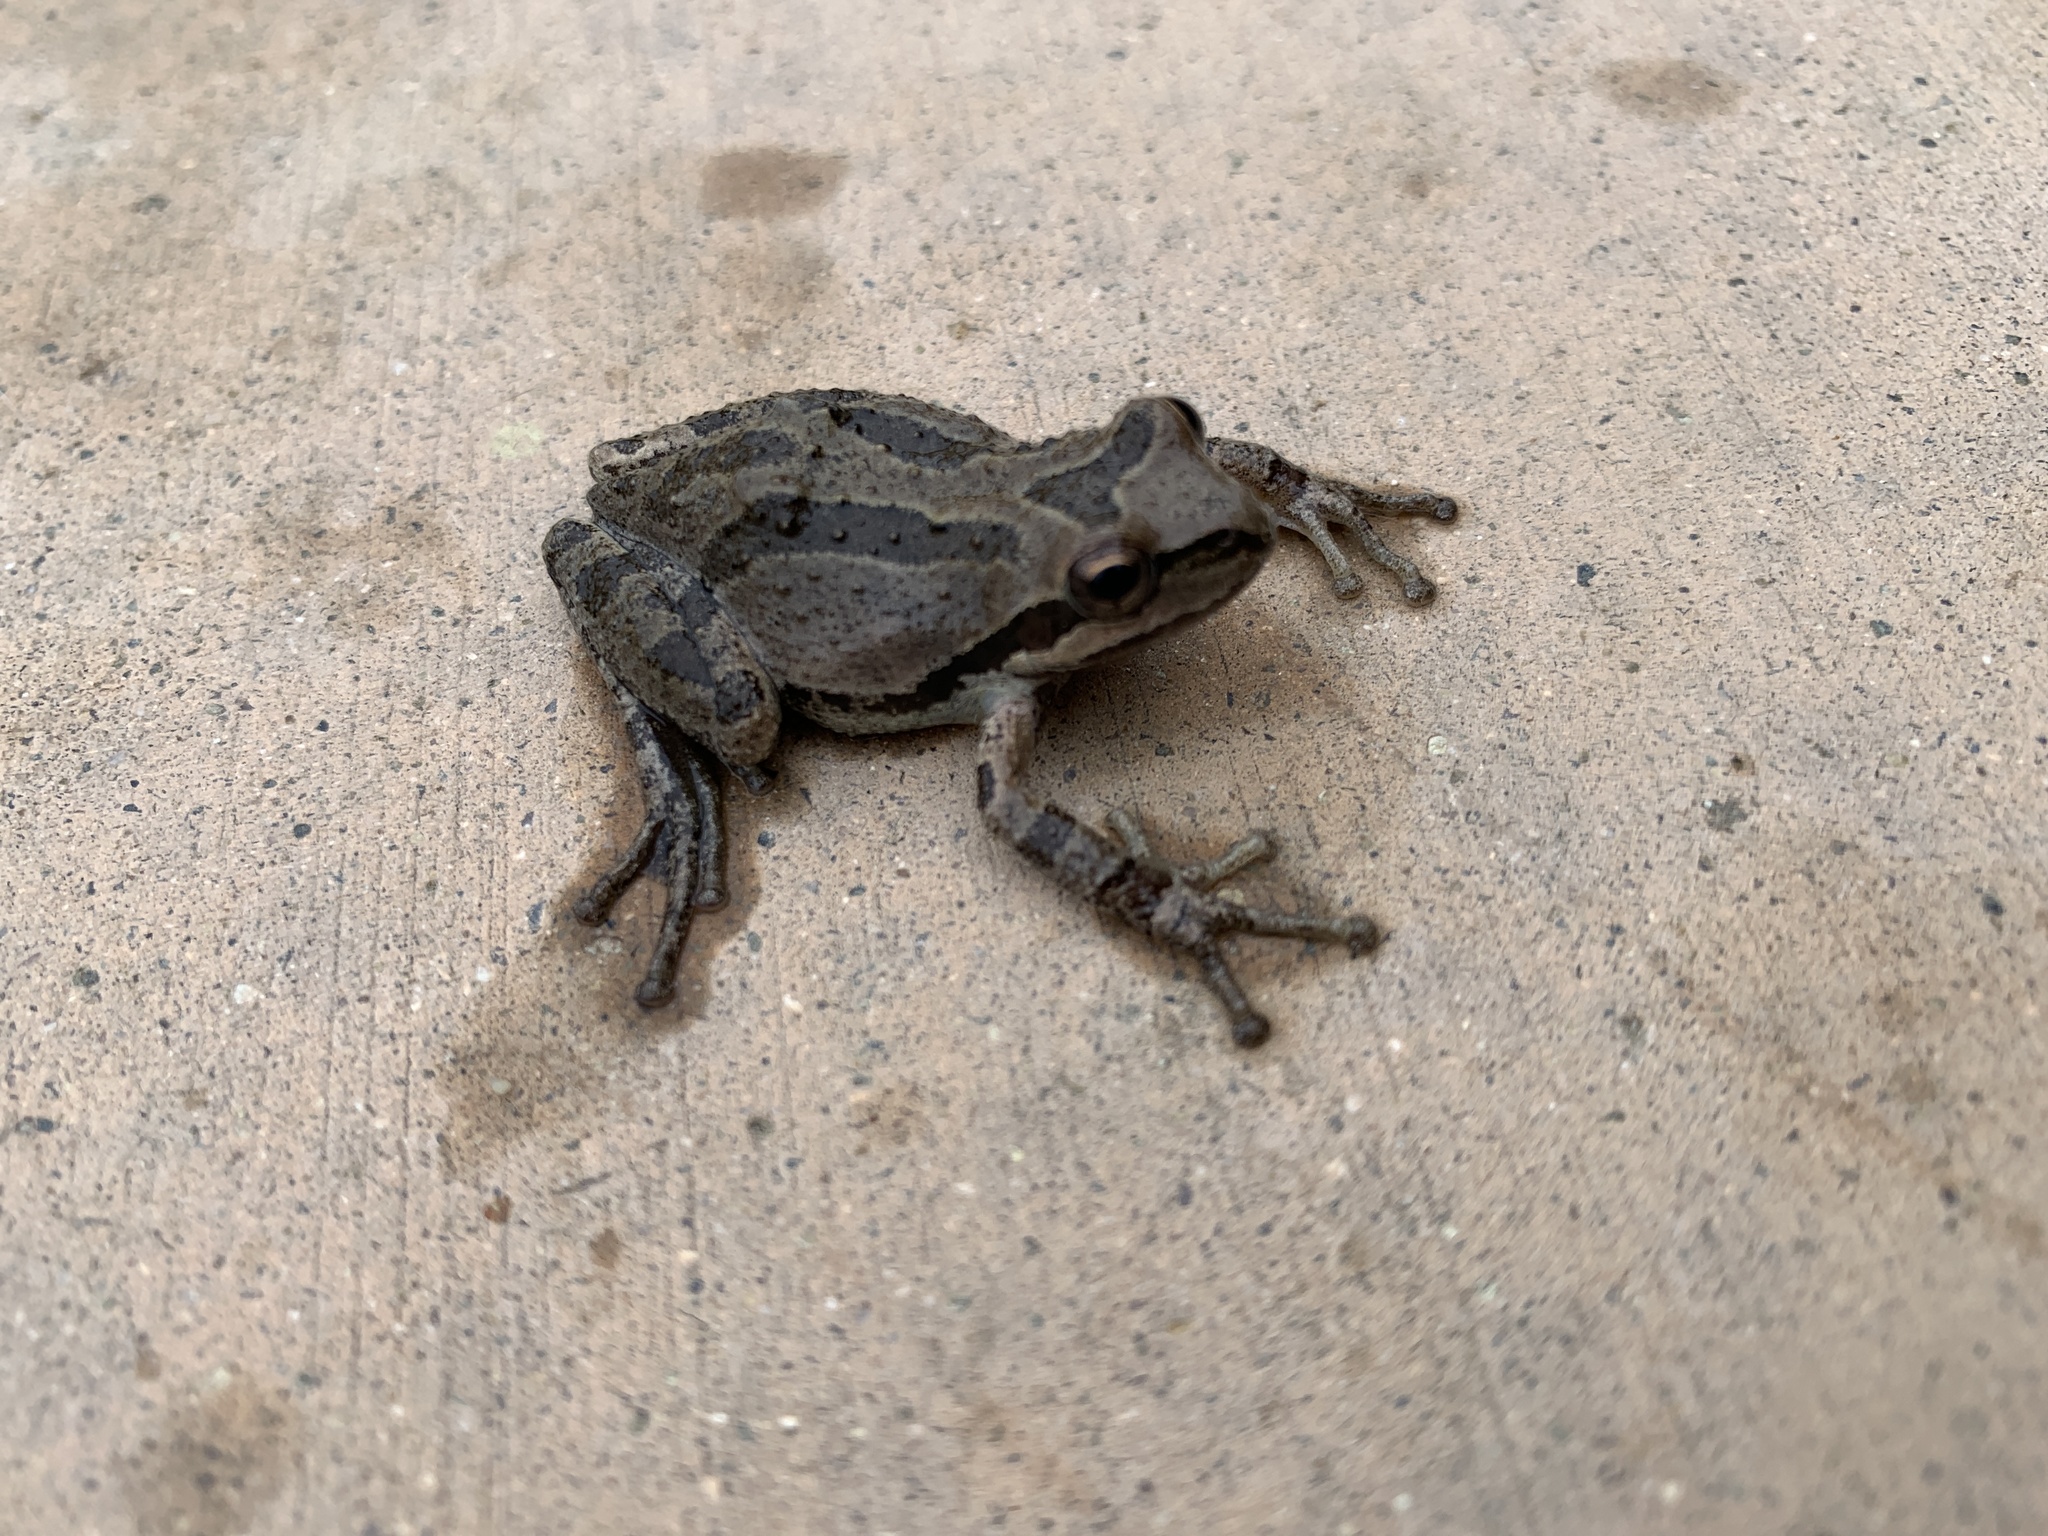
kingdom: Animalia
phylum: Chordata
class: Amphibia
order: Anura
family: Hylidae
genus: Pseudacris
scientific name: Pseudacris regilla
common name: Pacific chorus frog
